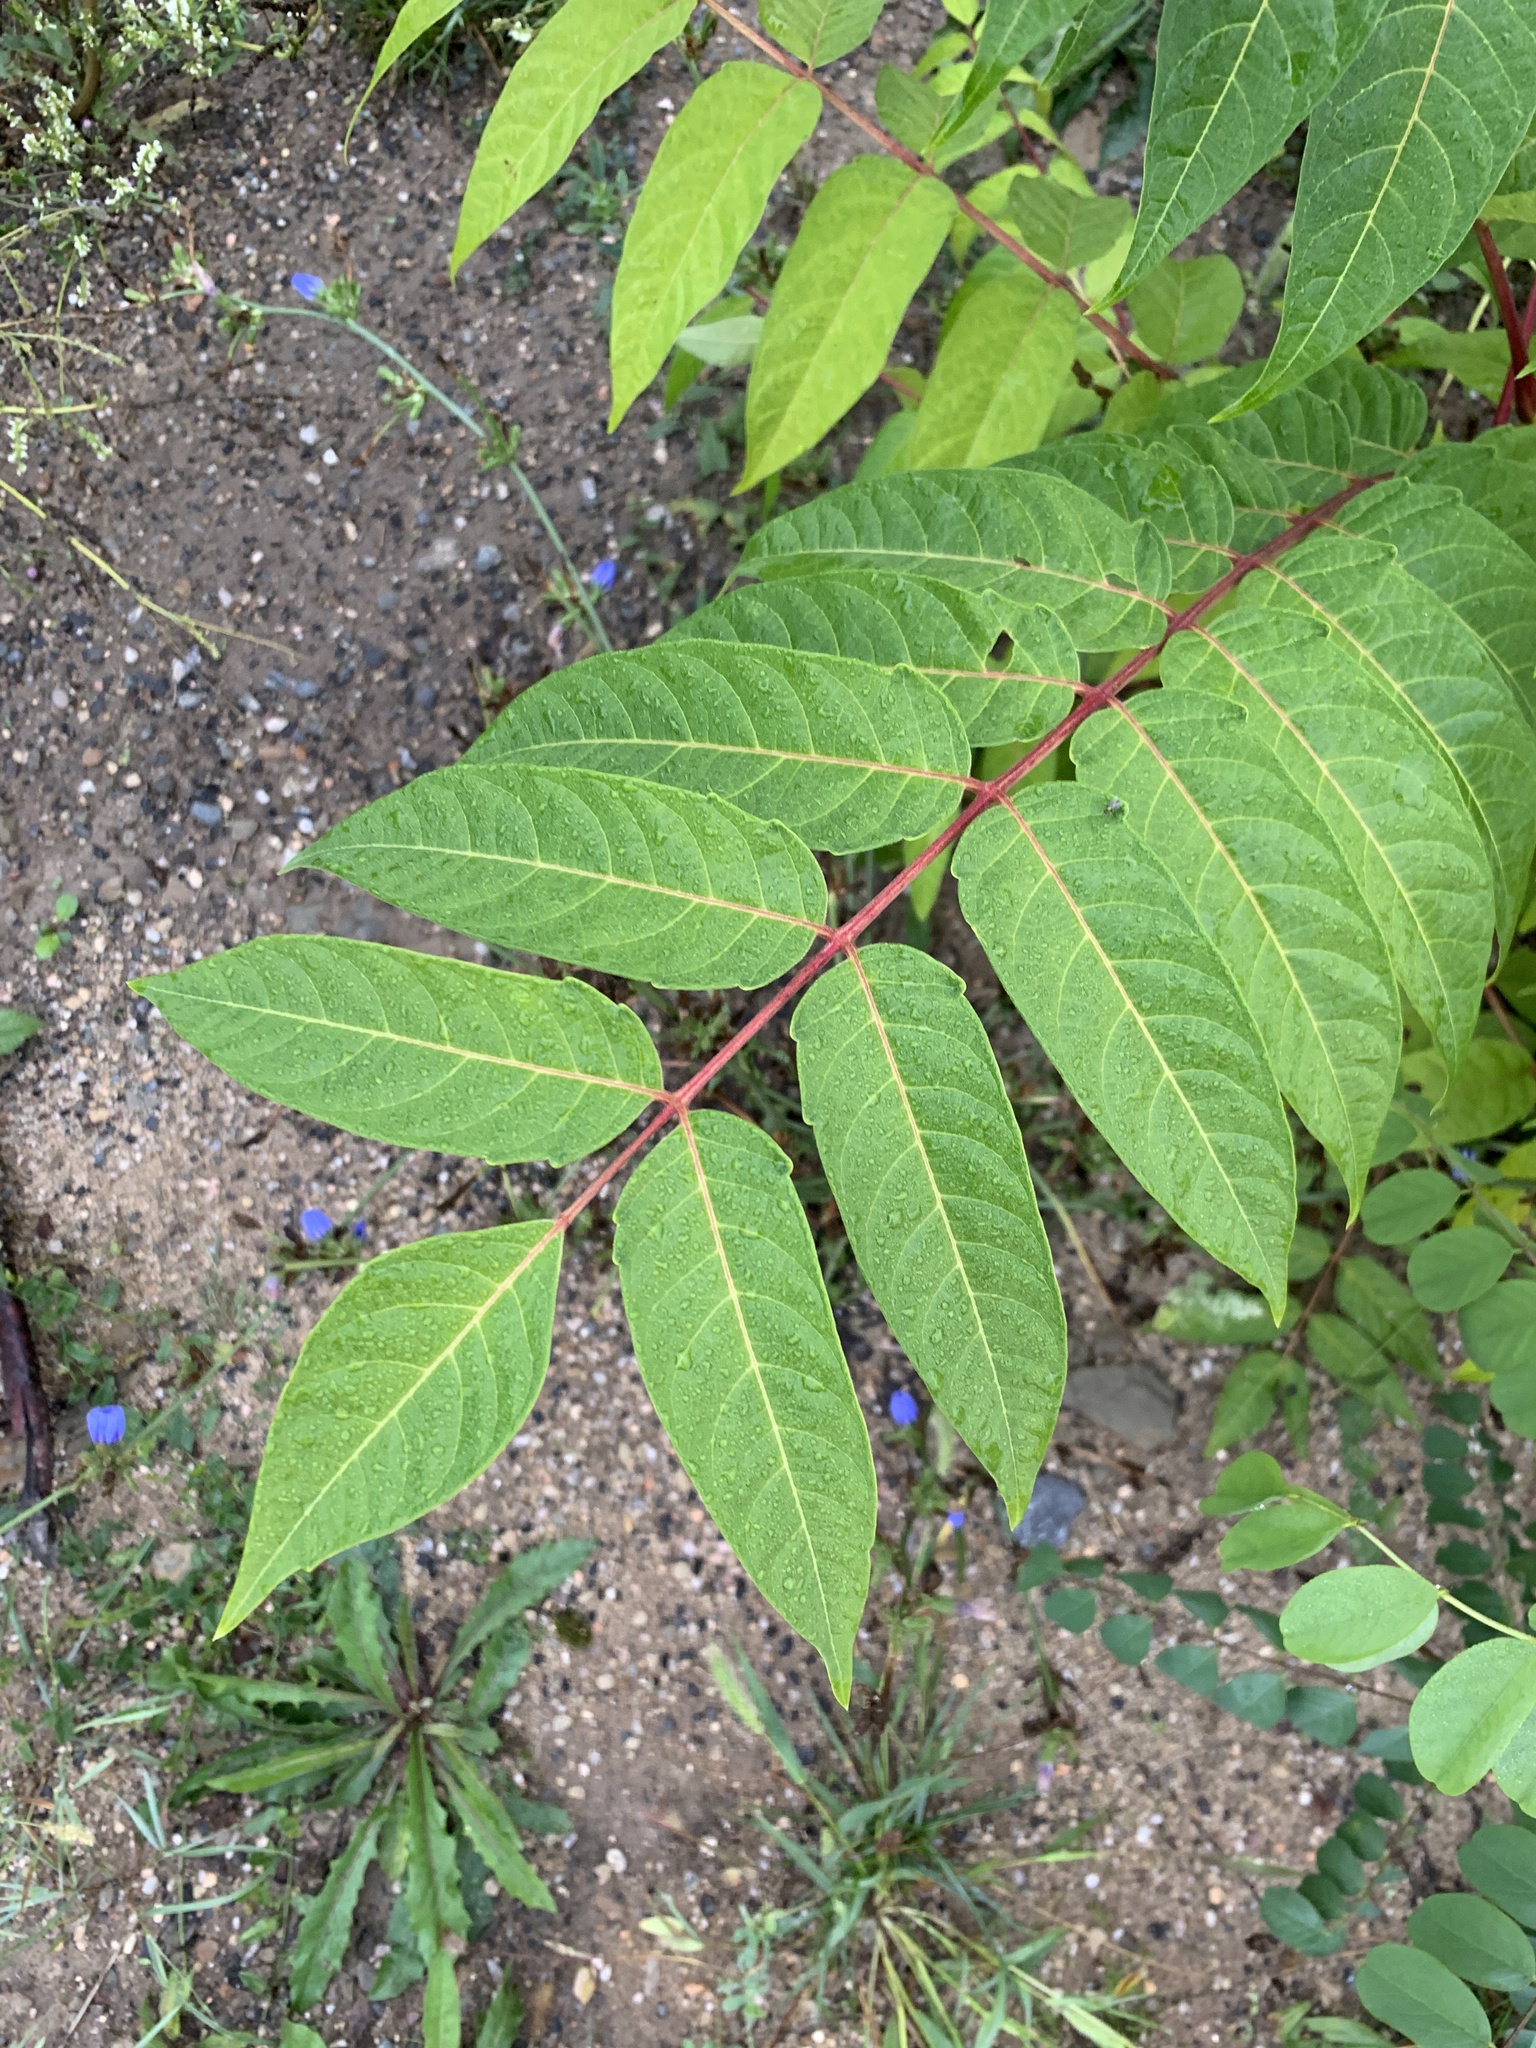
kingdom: Plantae
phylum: Tracheophyta
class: Magnoliopsida
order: Sapindales
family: Simaroubaceae
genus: Ailanthus
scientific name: Ailanthus altissima
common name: Tree-of-heaven
